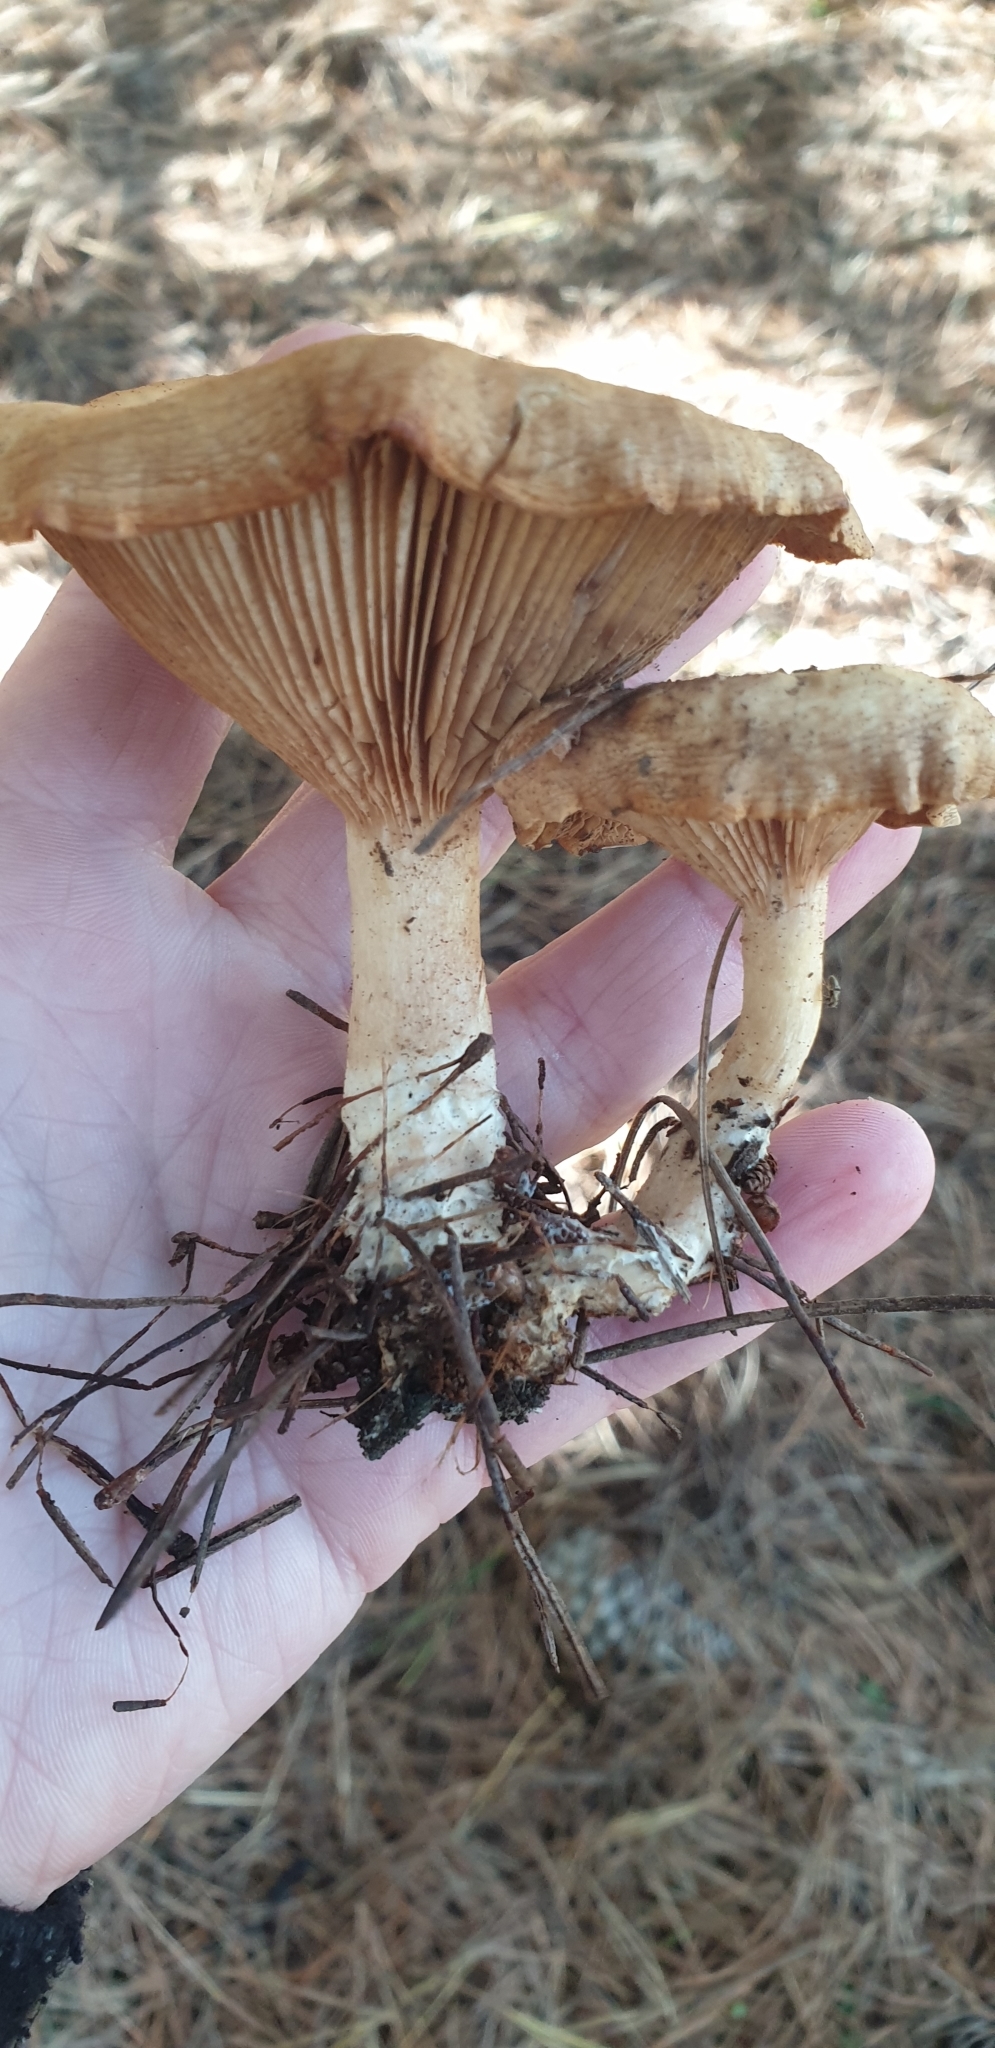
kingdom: Fungi
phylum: Basidiomycota
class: Agaricomycetes
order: Agaricales
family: Entolomataceae
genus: Clitopilus
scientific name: Clitopilus piperitus
